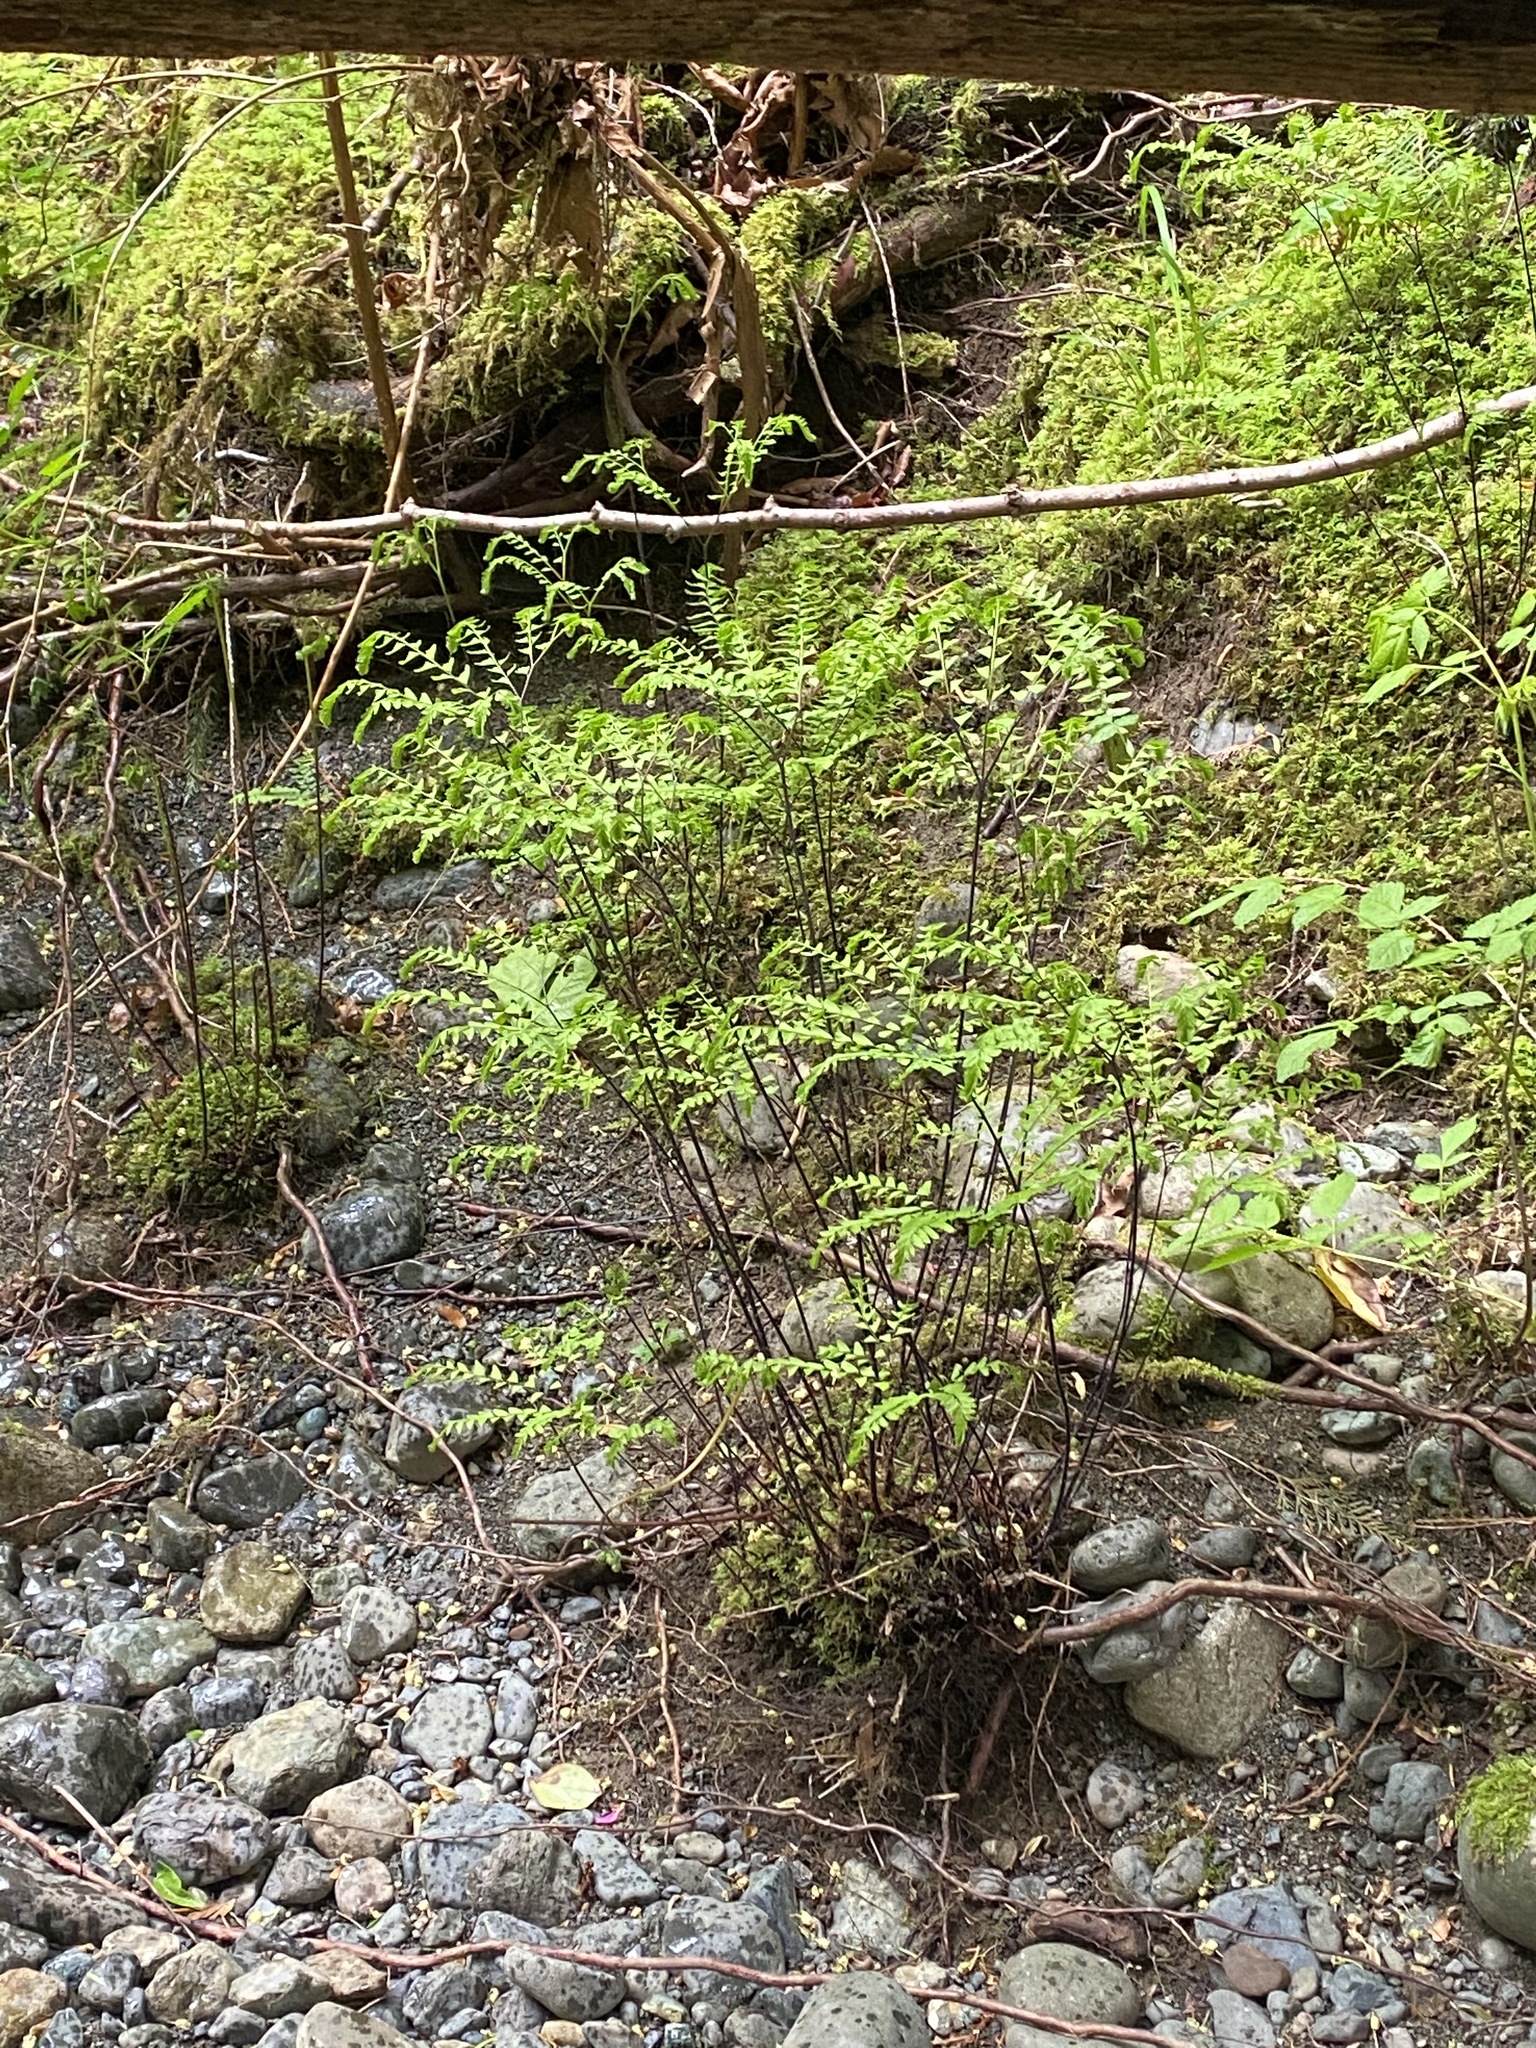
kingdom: Plantae
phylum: Tracheophyta
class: Polypodiopsida
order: Polypodiales
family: Pteridaceae
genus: Adiantum
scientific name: Adiantum aleuticum
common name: Aleutian maidenhair fern
